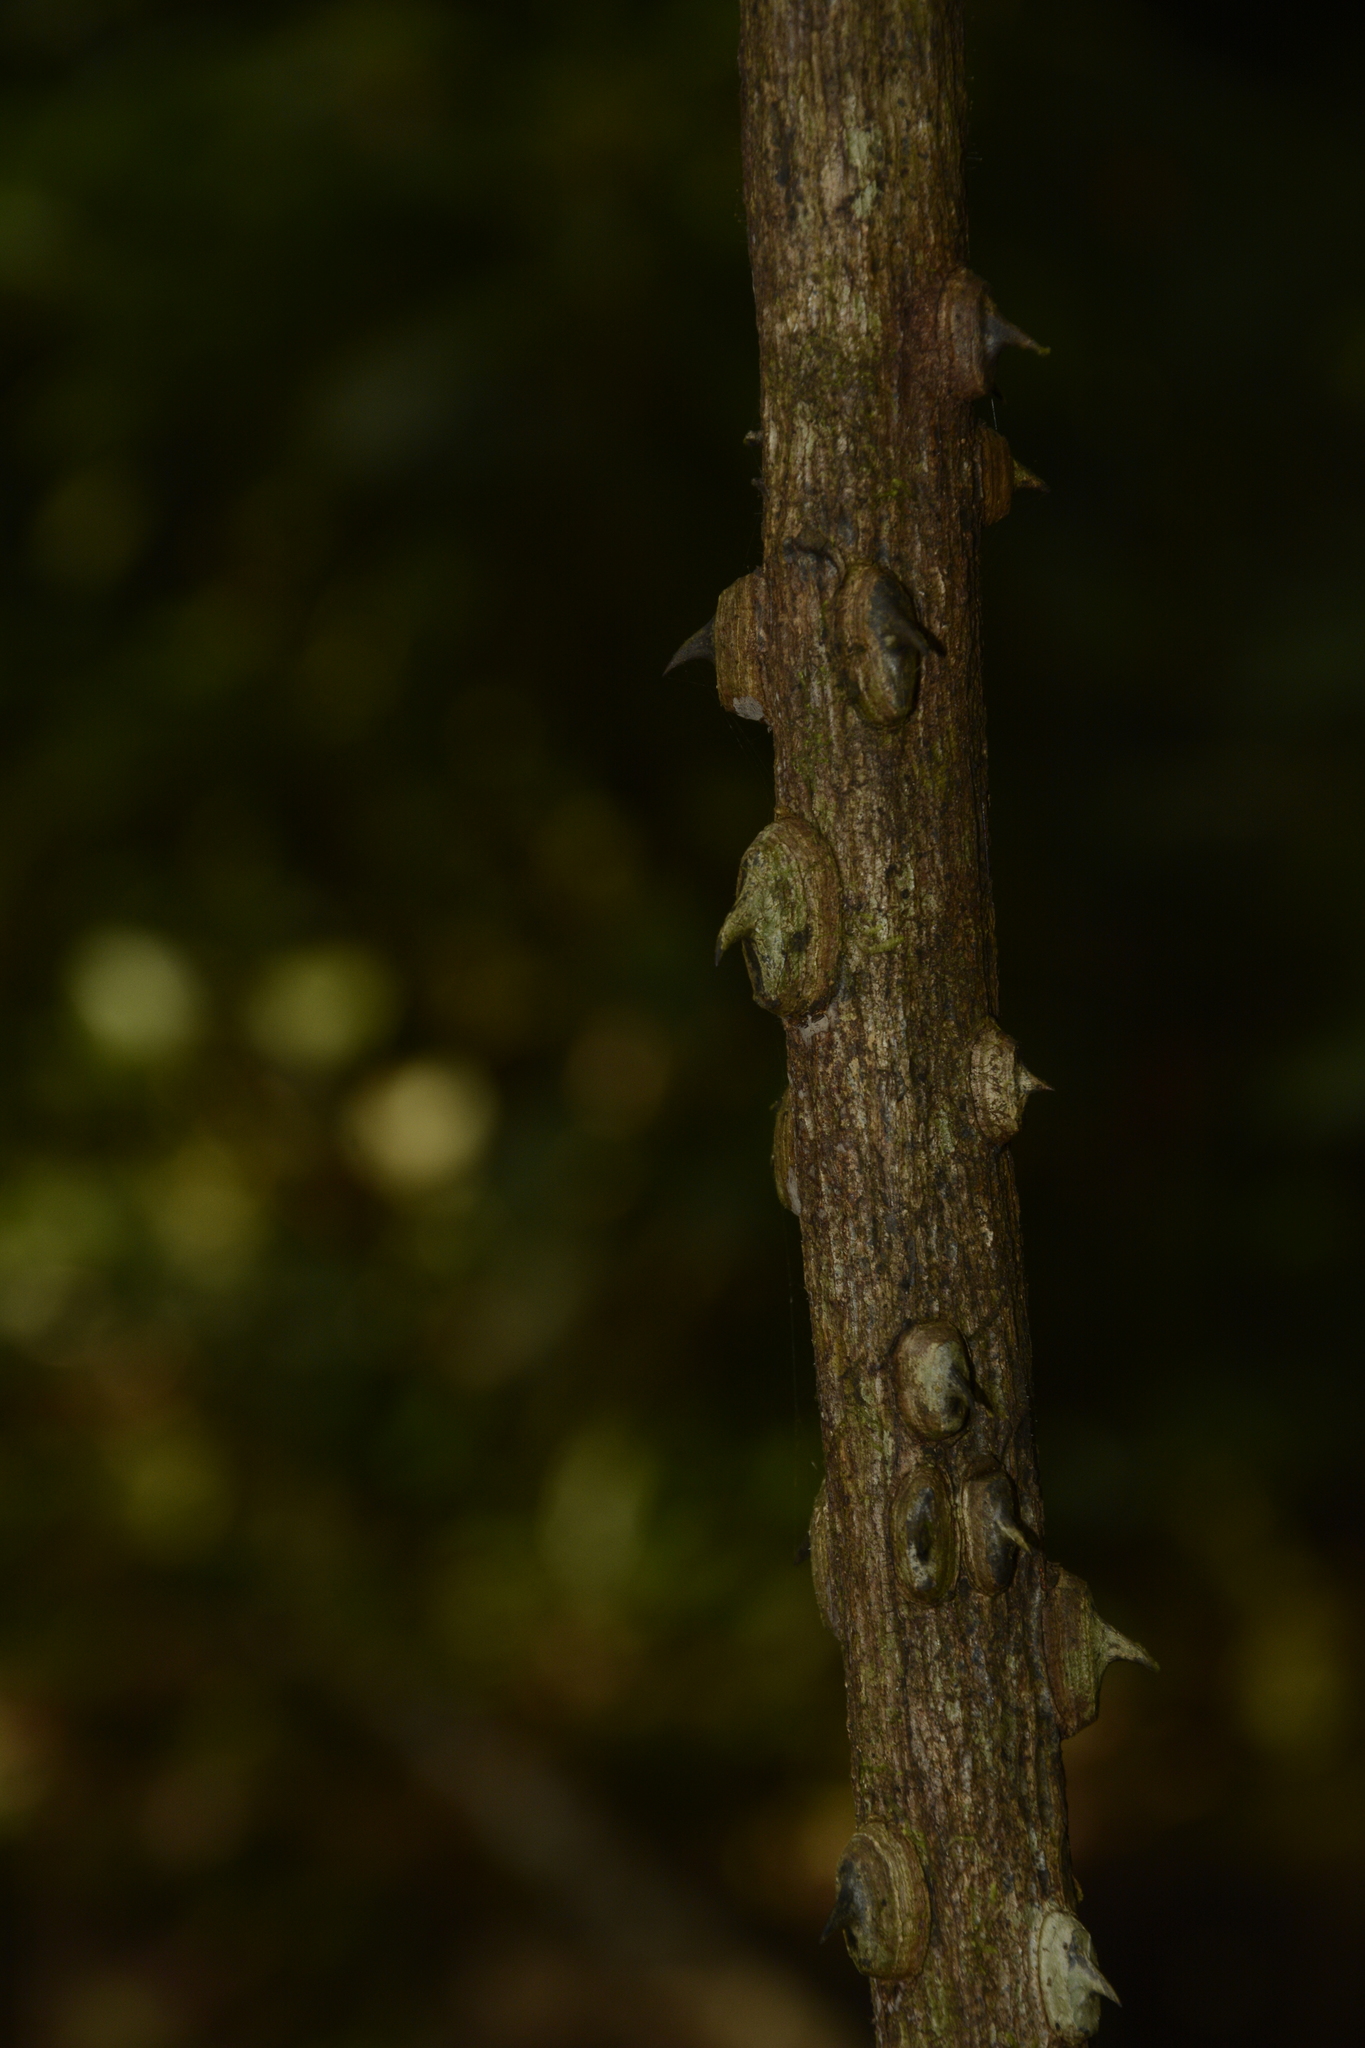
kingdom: Plantae
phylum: Tracheophyta
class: Magnoliopsida
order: Fabales
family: Fabaceae
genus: Mezoneuron
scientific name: Mezoneuron cucullatum
